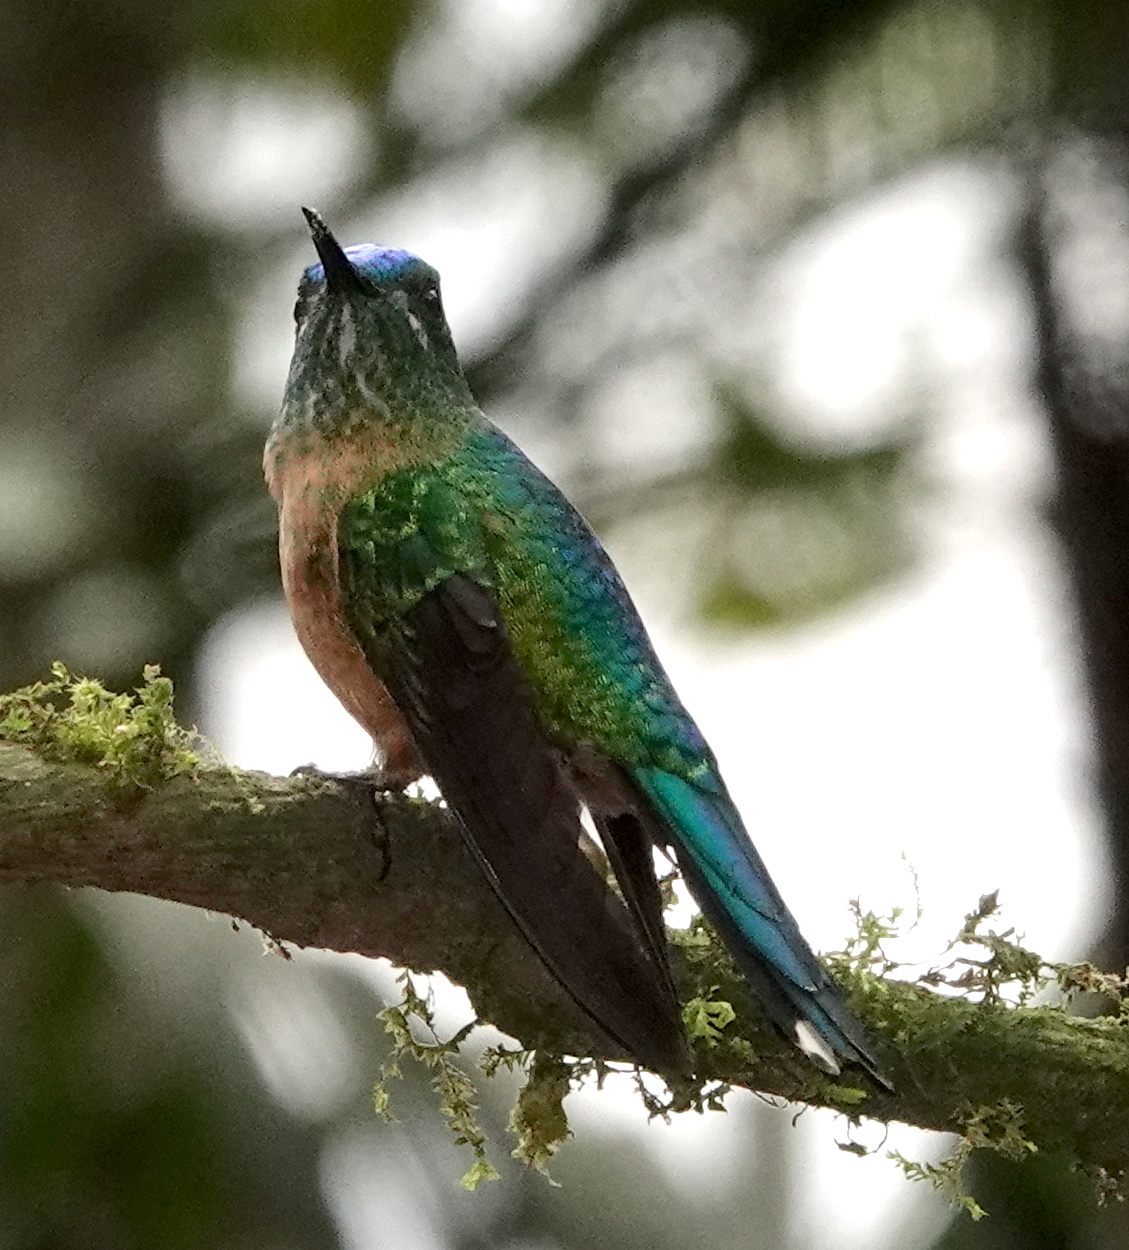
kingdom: Animalia
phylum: Chordata
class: Aves
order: Apodiformes
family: Trochilidae
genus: Aglaiocercus
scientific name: Aglaiocercus kingii
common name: Long-tailed sylph
